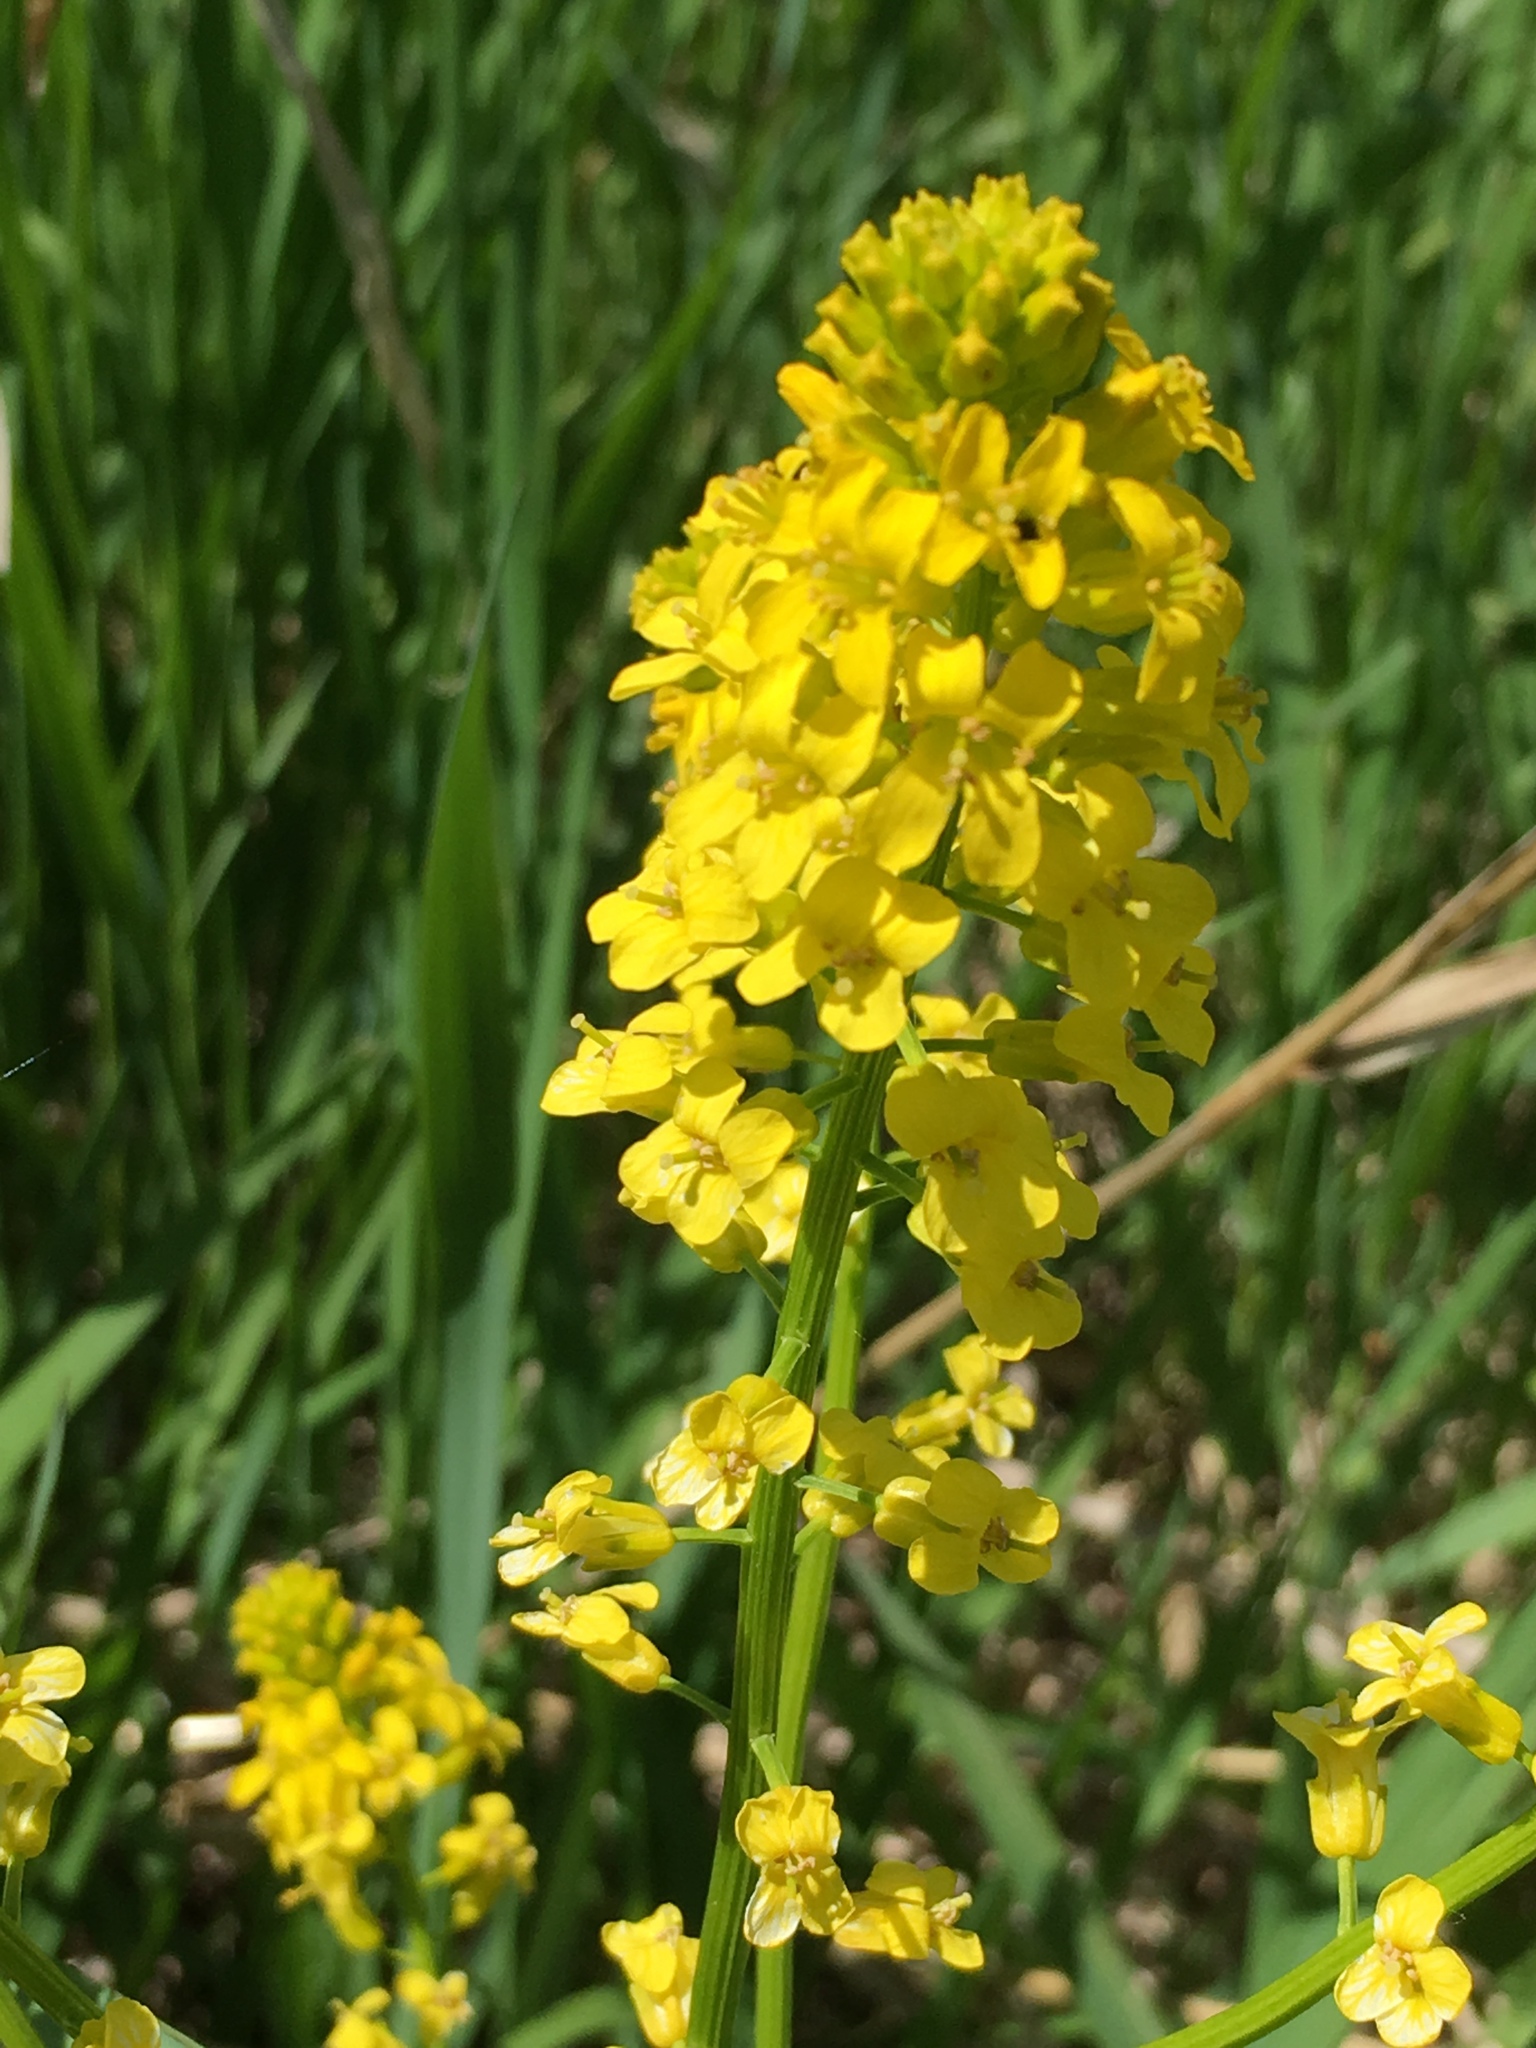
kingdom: Plantae
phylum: Tracheophyta
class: Magnoliopsida
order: Brassicales
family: Brassicaceae
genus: Barbarea
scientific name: Barbarea vulgaris
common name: Cressy-greens
